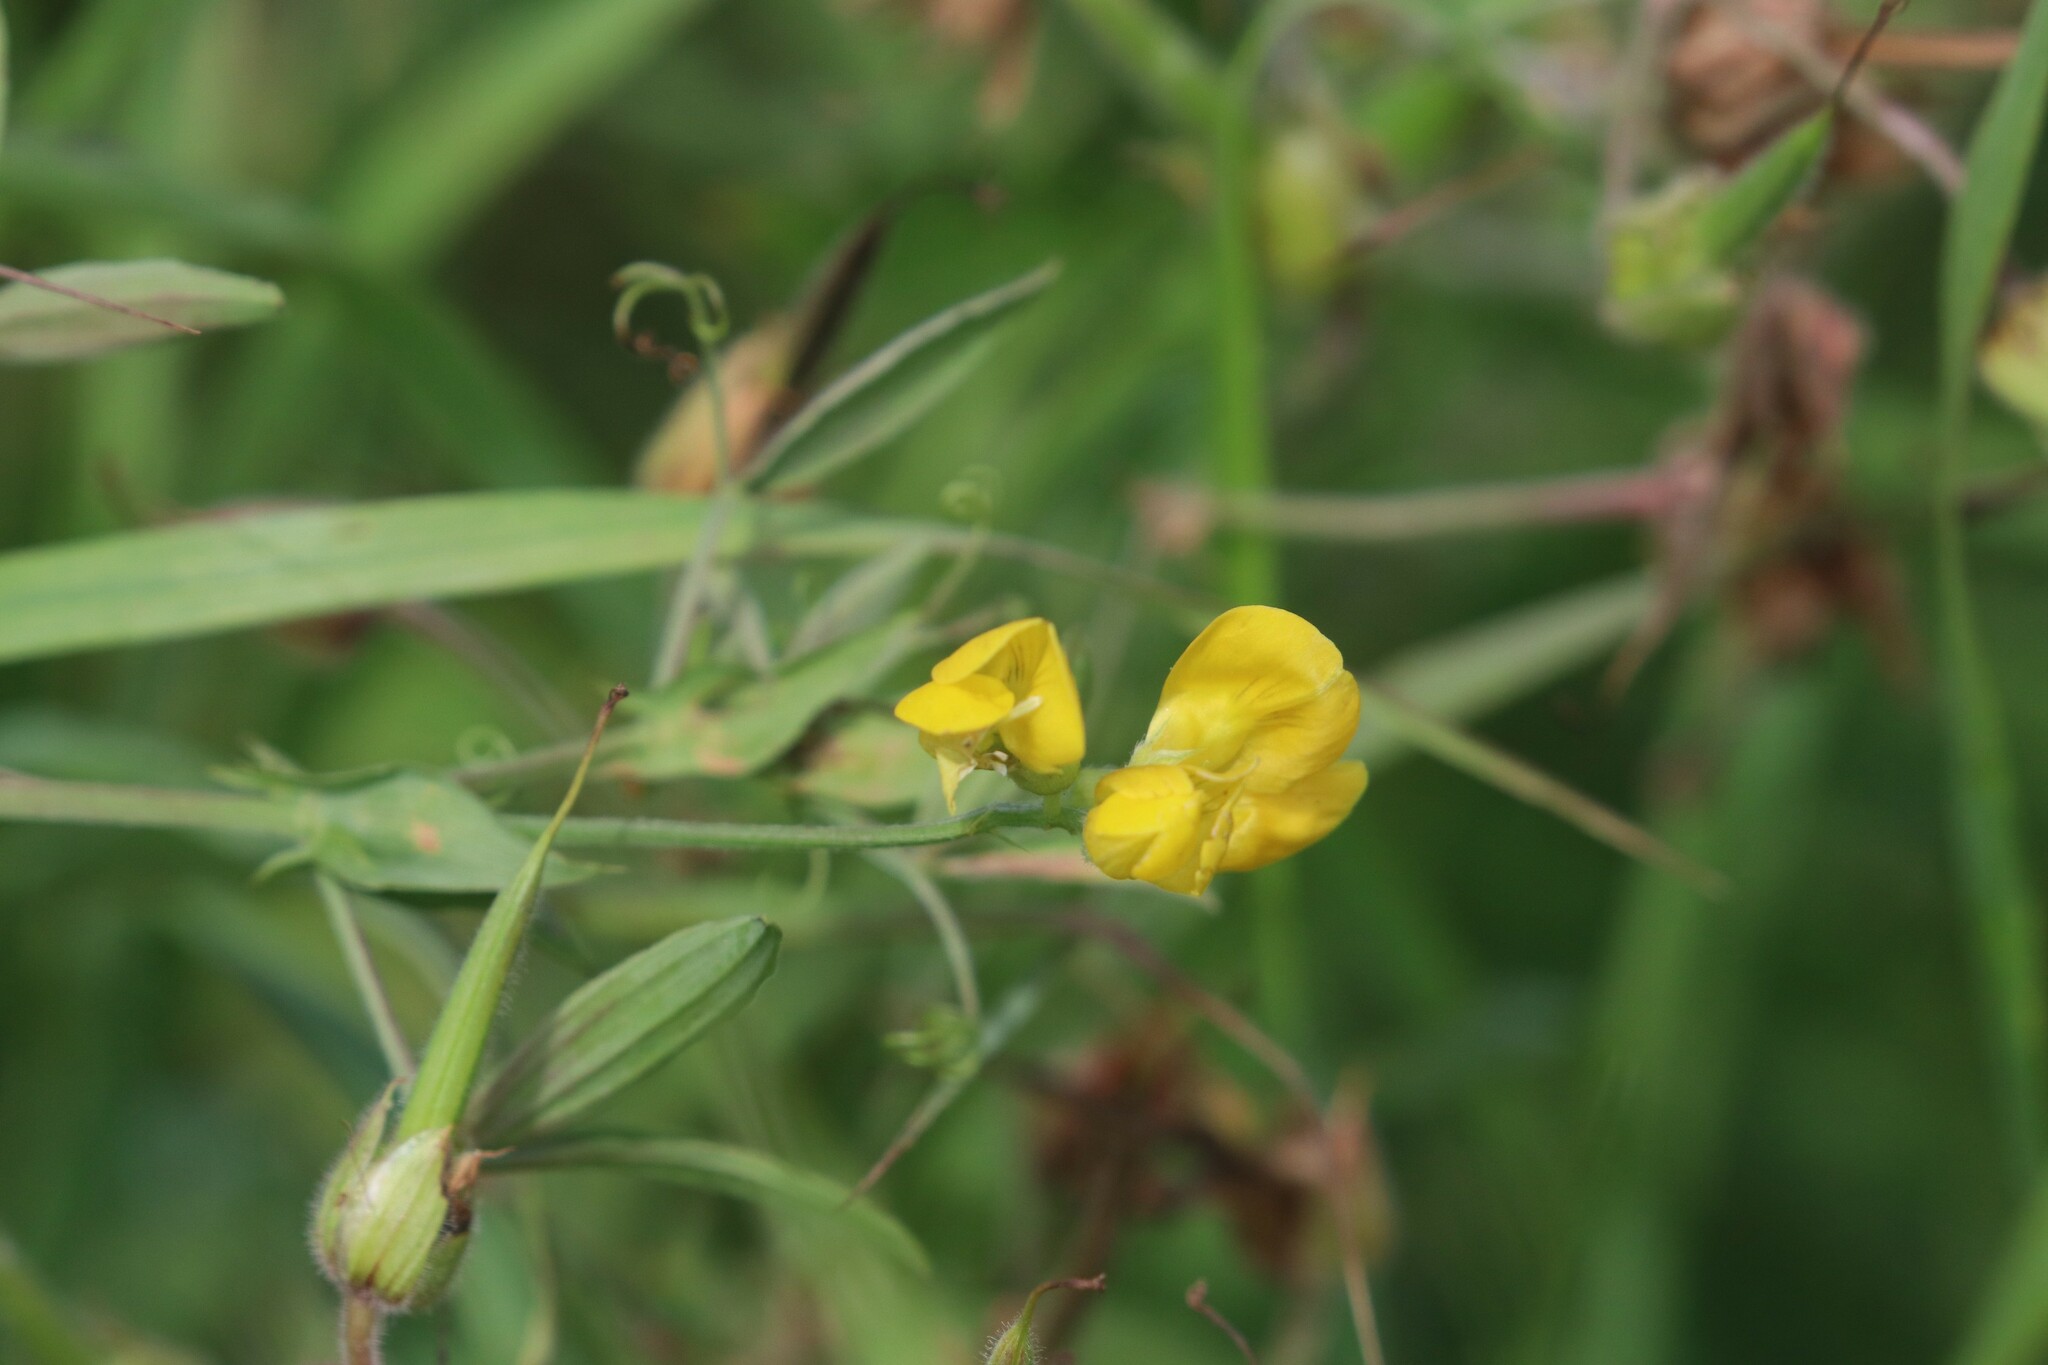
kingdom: Plantae
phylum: Tracheophyta
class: Magnoliopsida
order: Fabales
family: Fabaceae
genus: Lathyrus
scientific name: Lathyrus pratensis
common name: Meadow vetchling
